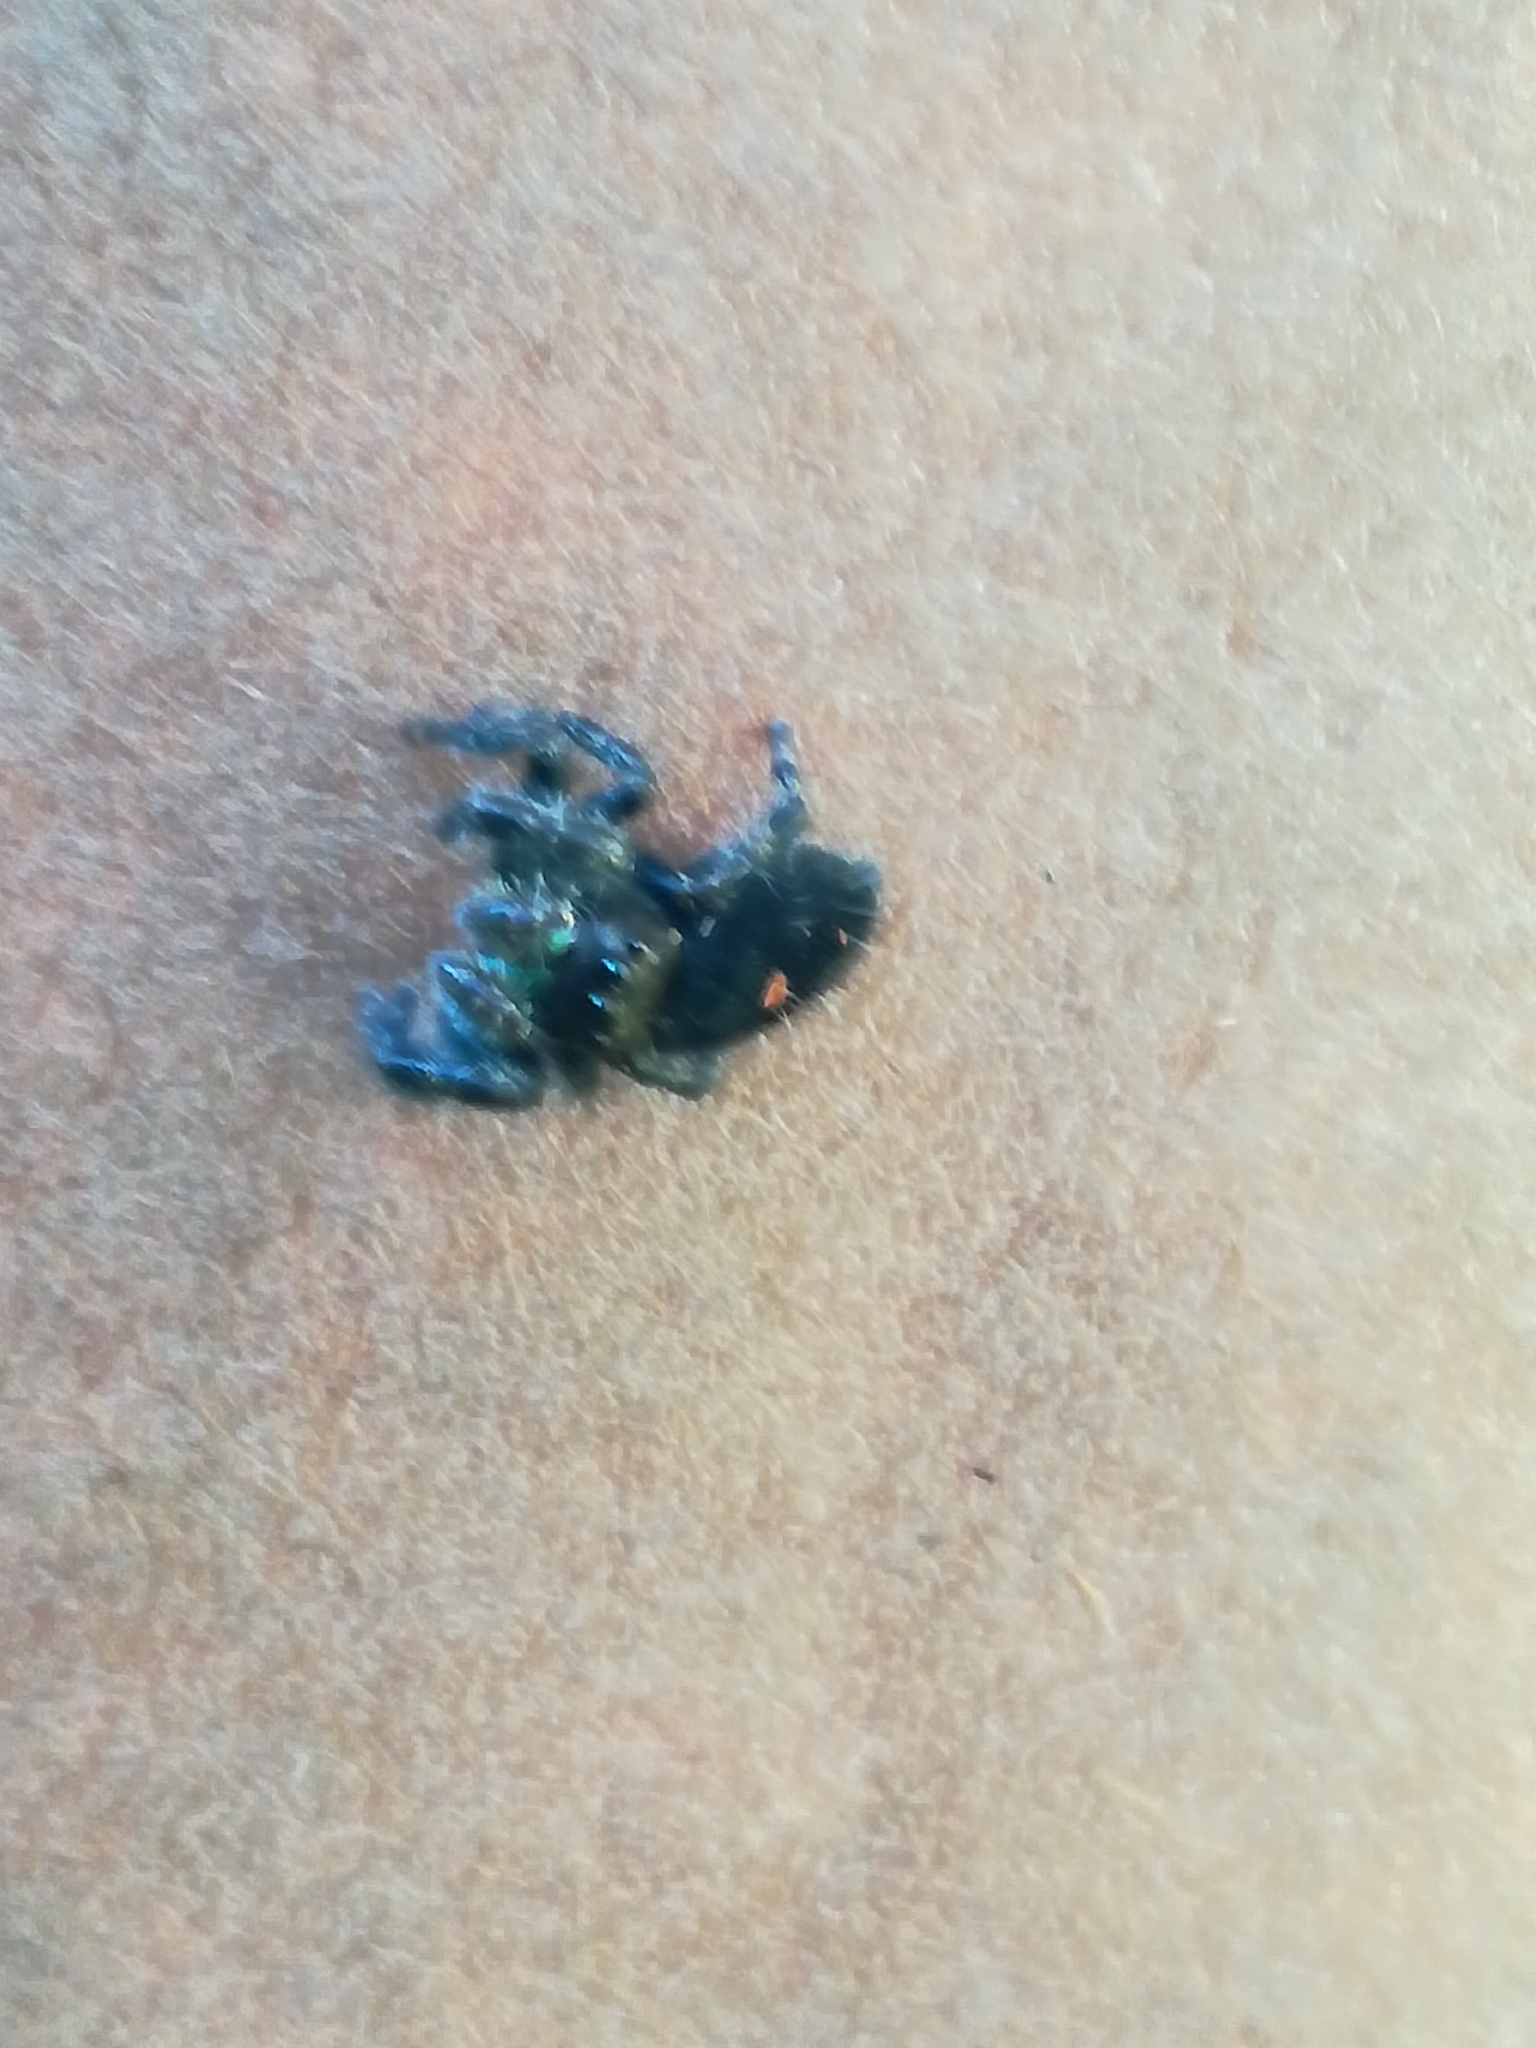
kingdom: Animalia
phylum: Arthropoda
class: Arachnida
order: Araneae
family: Salticidae
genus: Phidippus
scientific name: Phidippus audax
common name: Bold jumper
